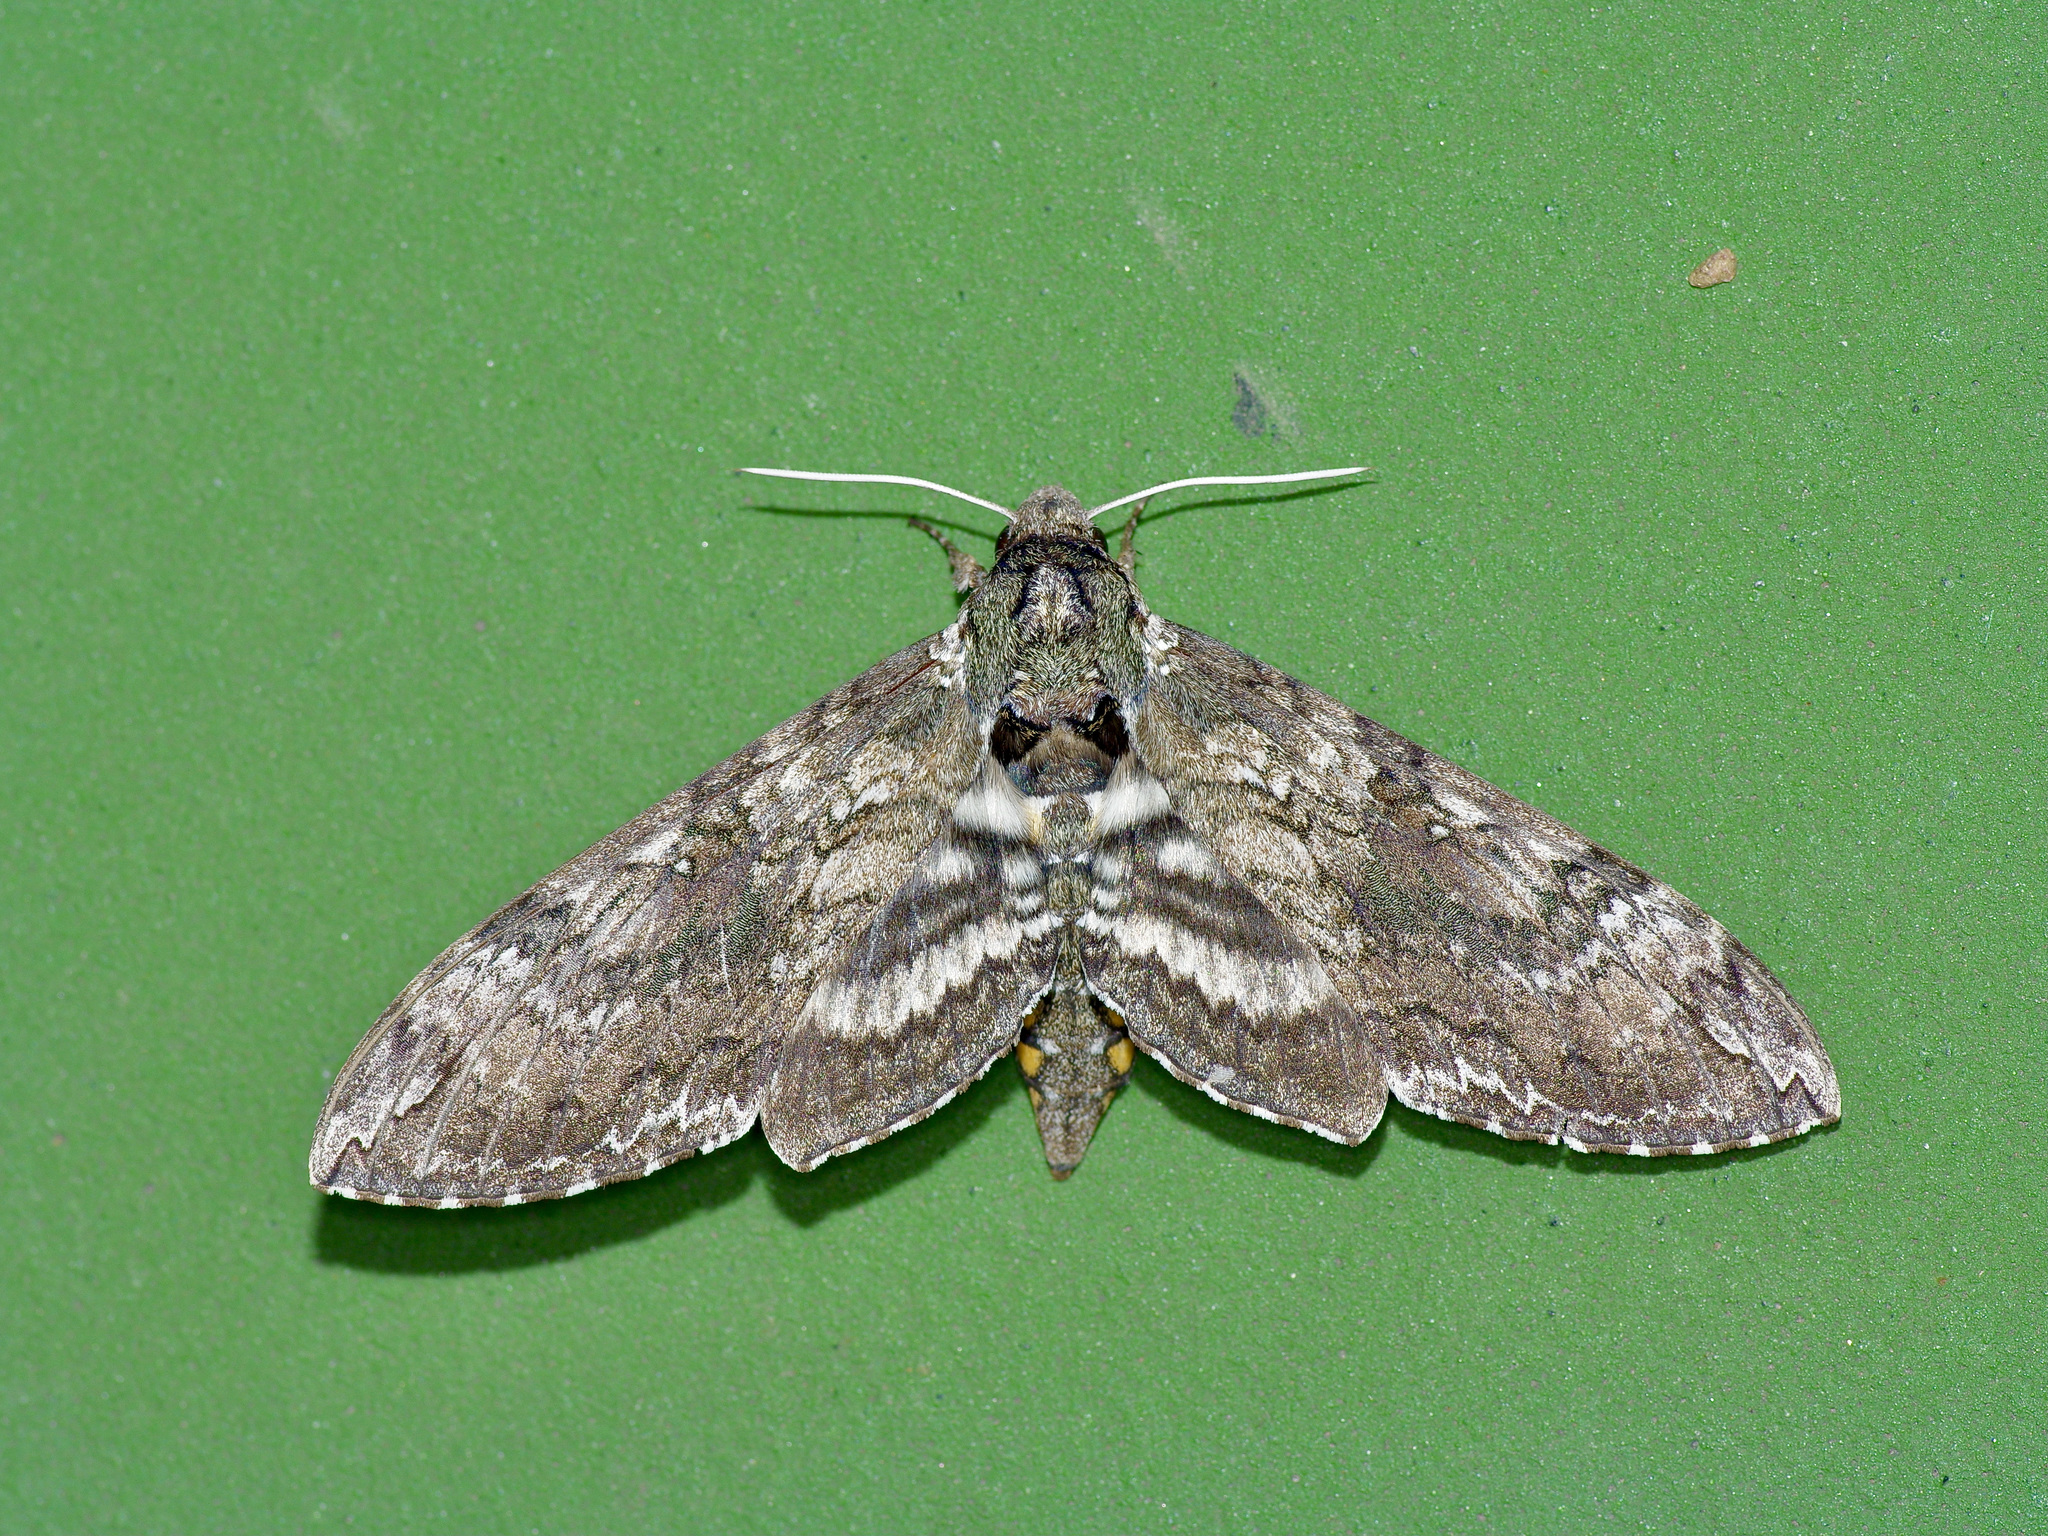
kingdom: Animalia
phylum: Arthropoda
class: Insecta
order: Lepidoptera
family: Sphingidae
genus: Manduca
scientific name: Manduca sexta
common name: Carolina sphinx
